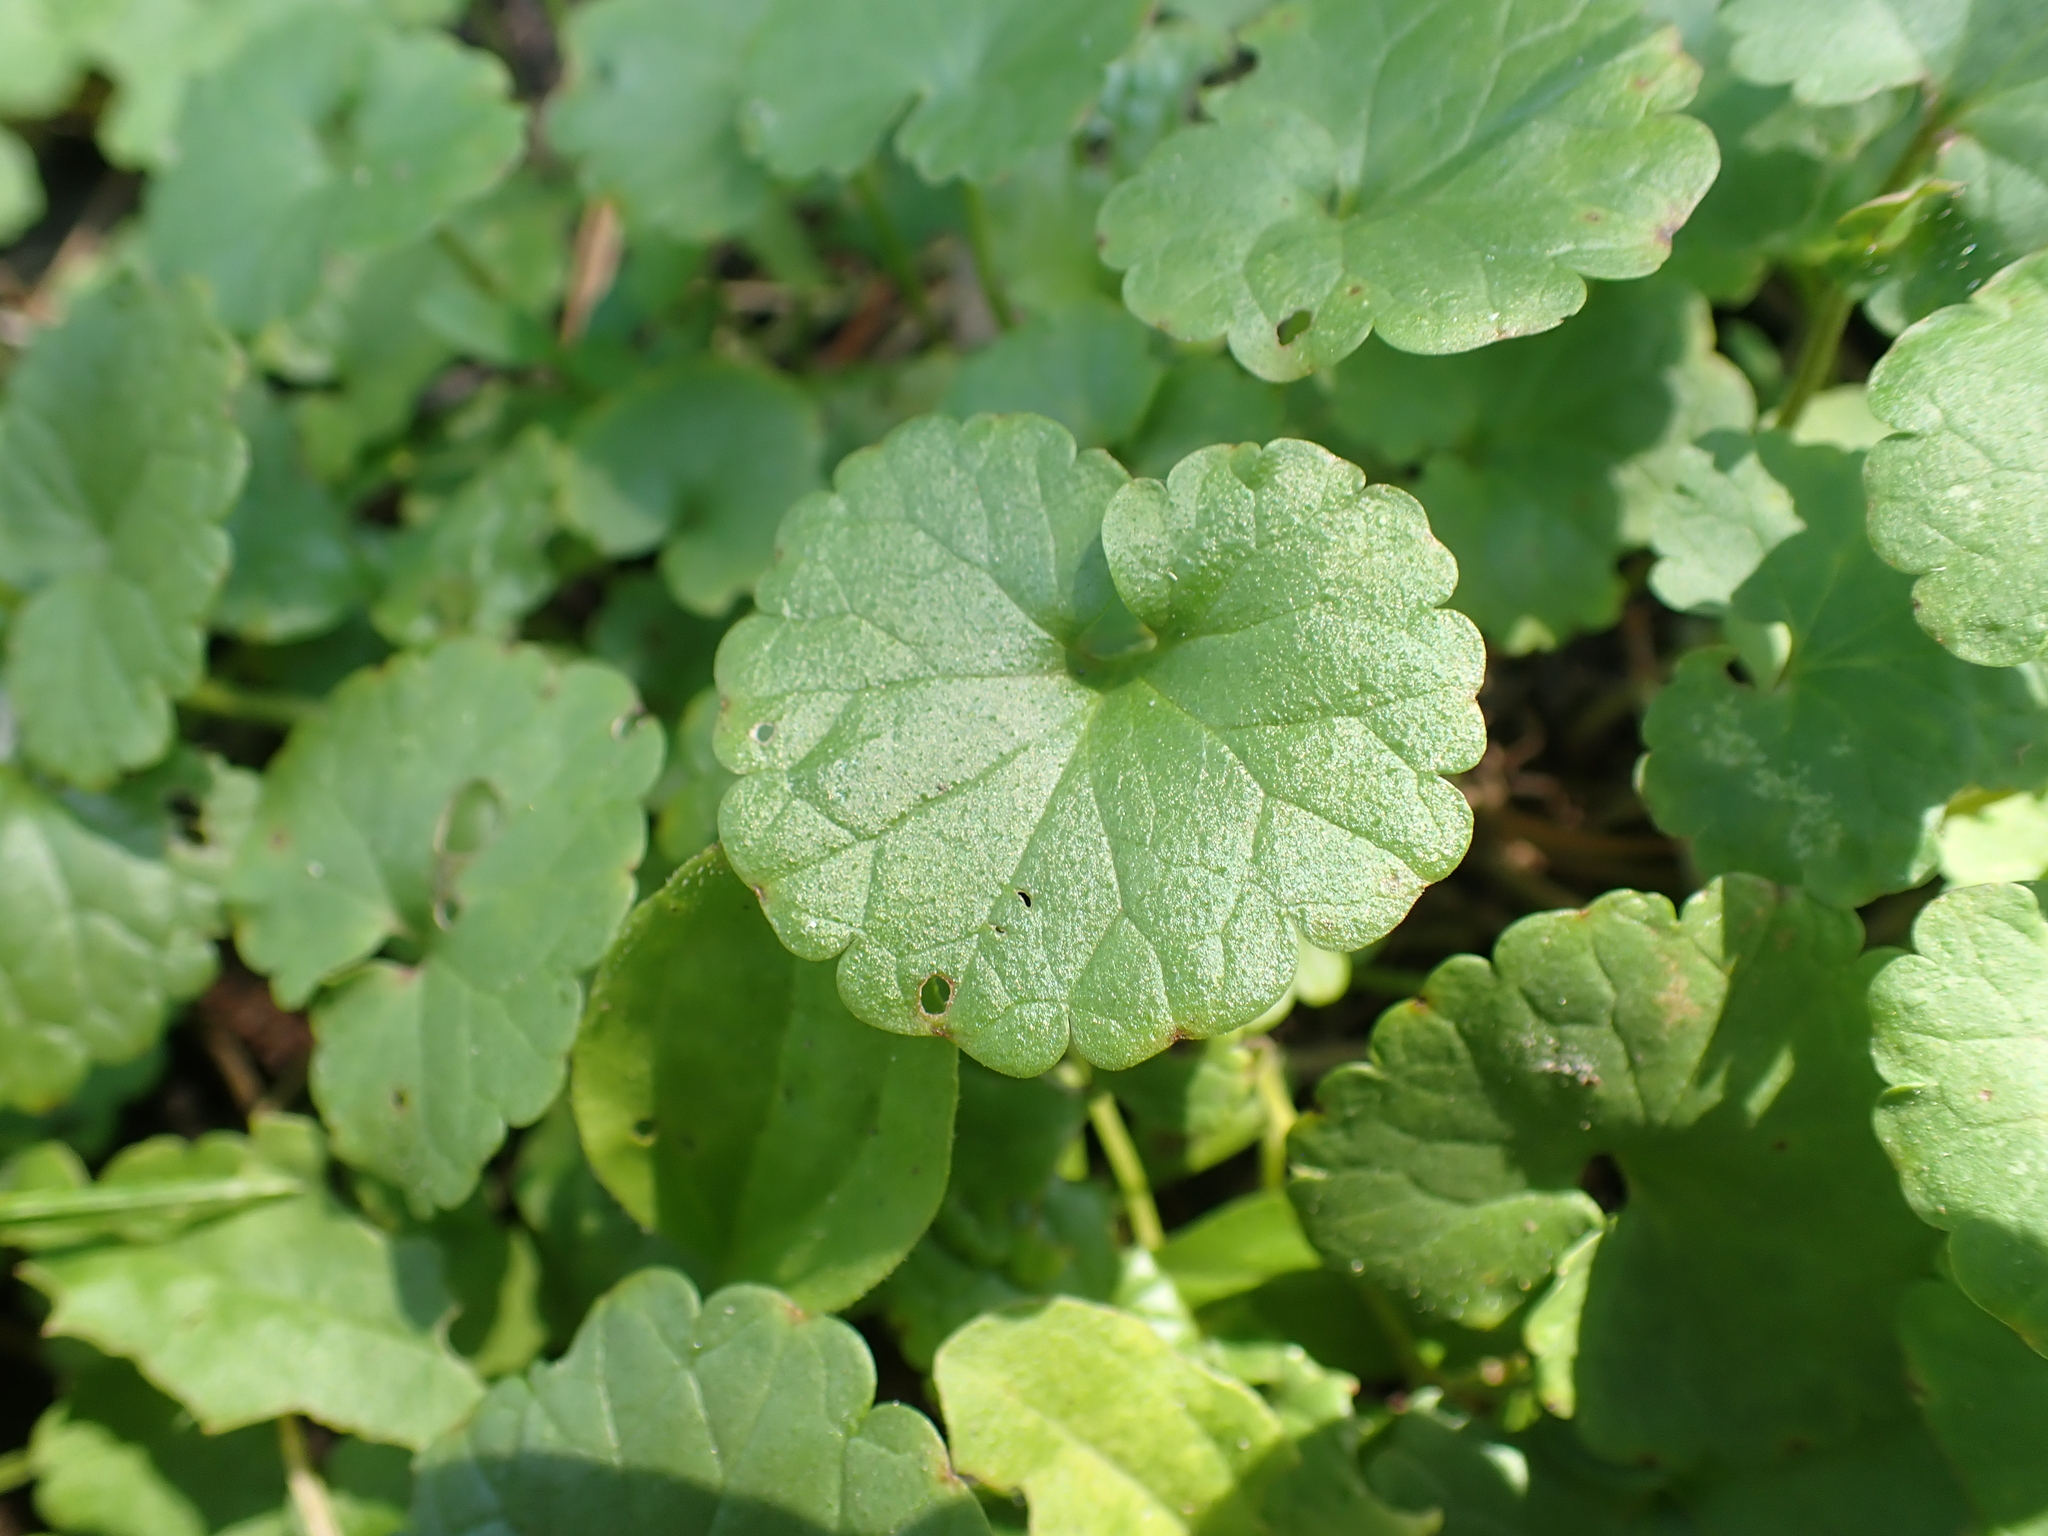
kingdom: Plantae
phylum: Tracheophyta
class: Magnoliopsida
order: Lamiales
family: Lamiaceae
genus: Glechoma
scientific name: Glechoma hederacea
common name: Ground ivy
